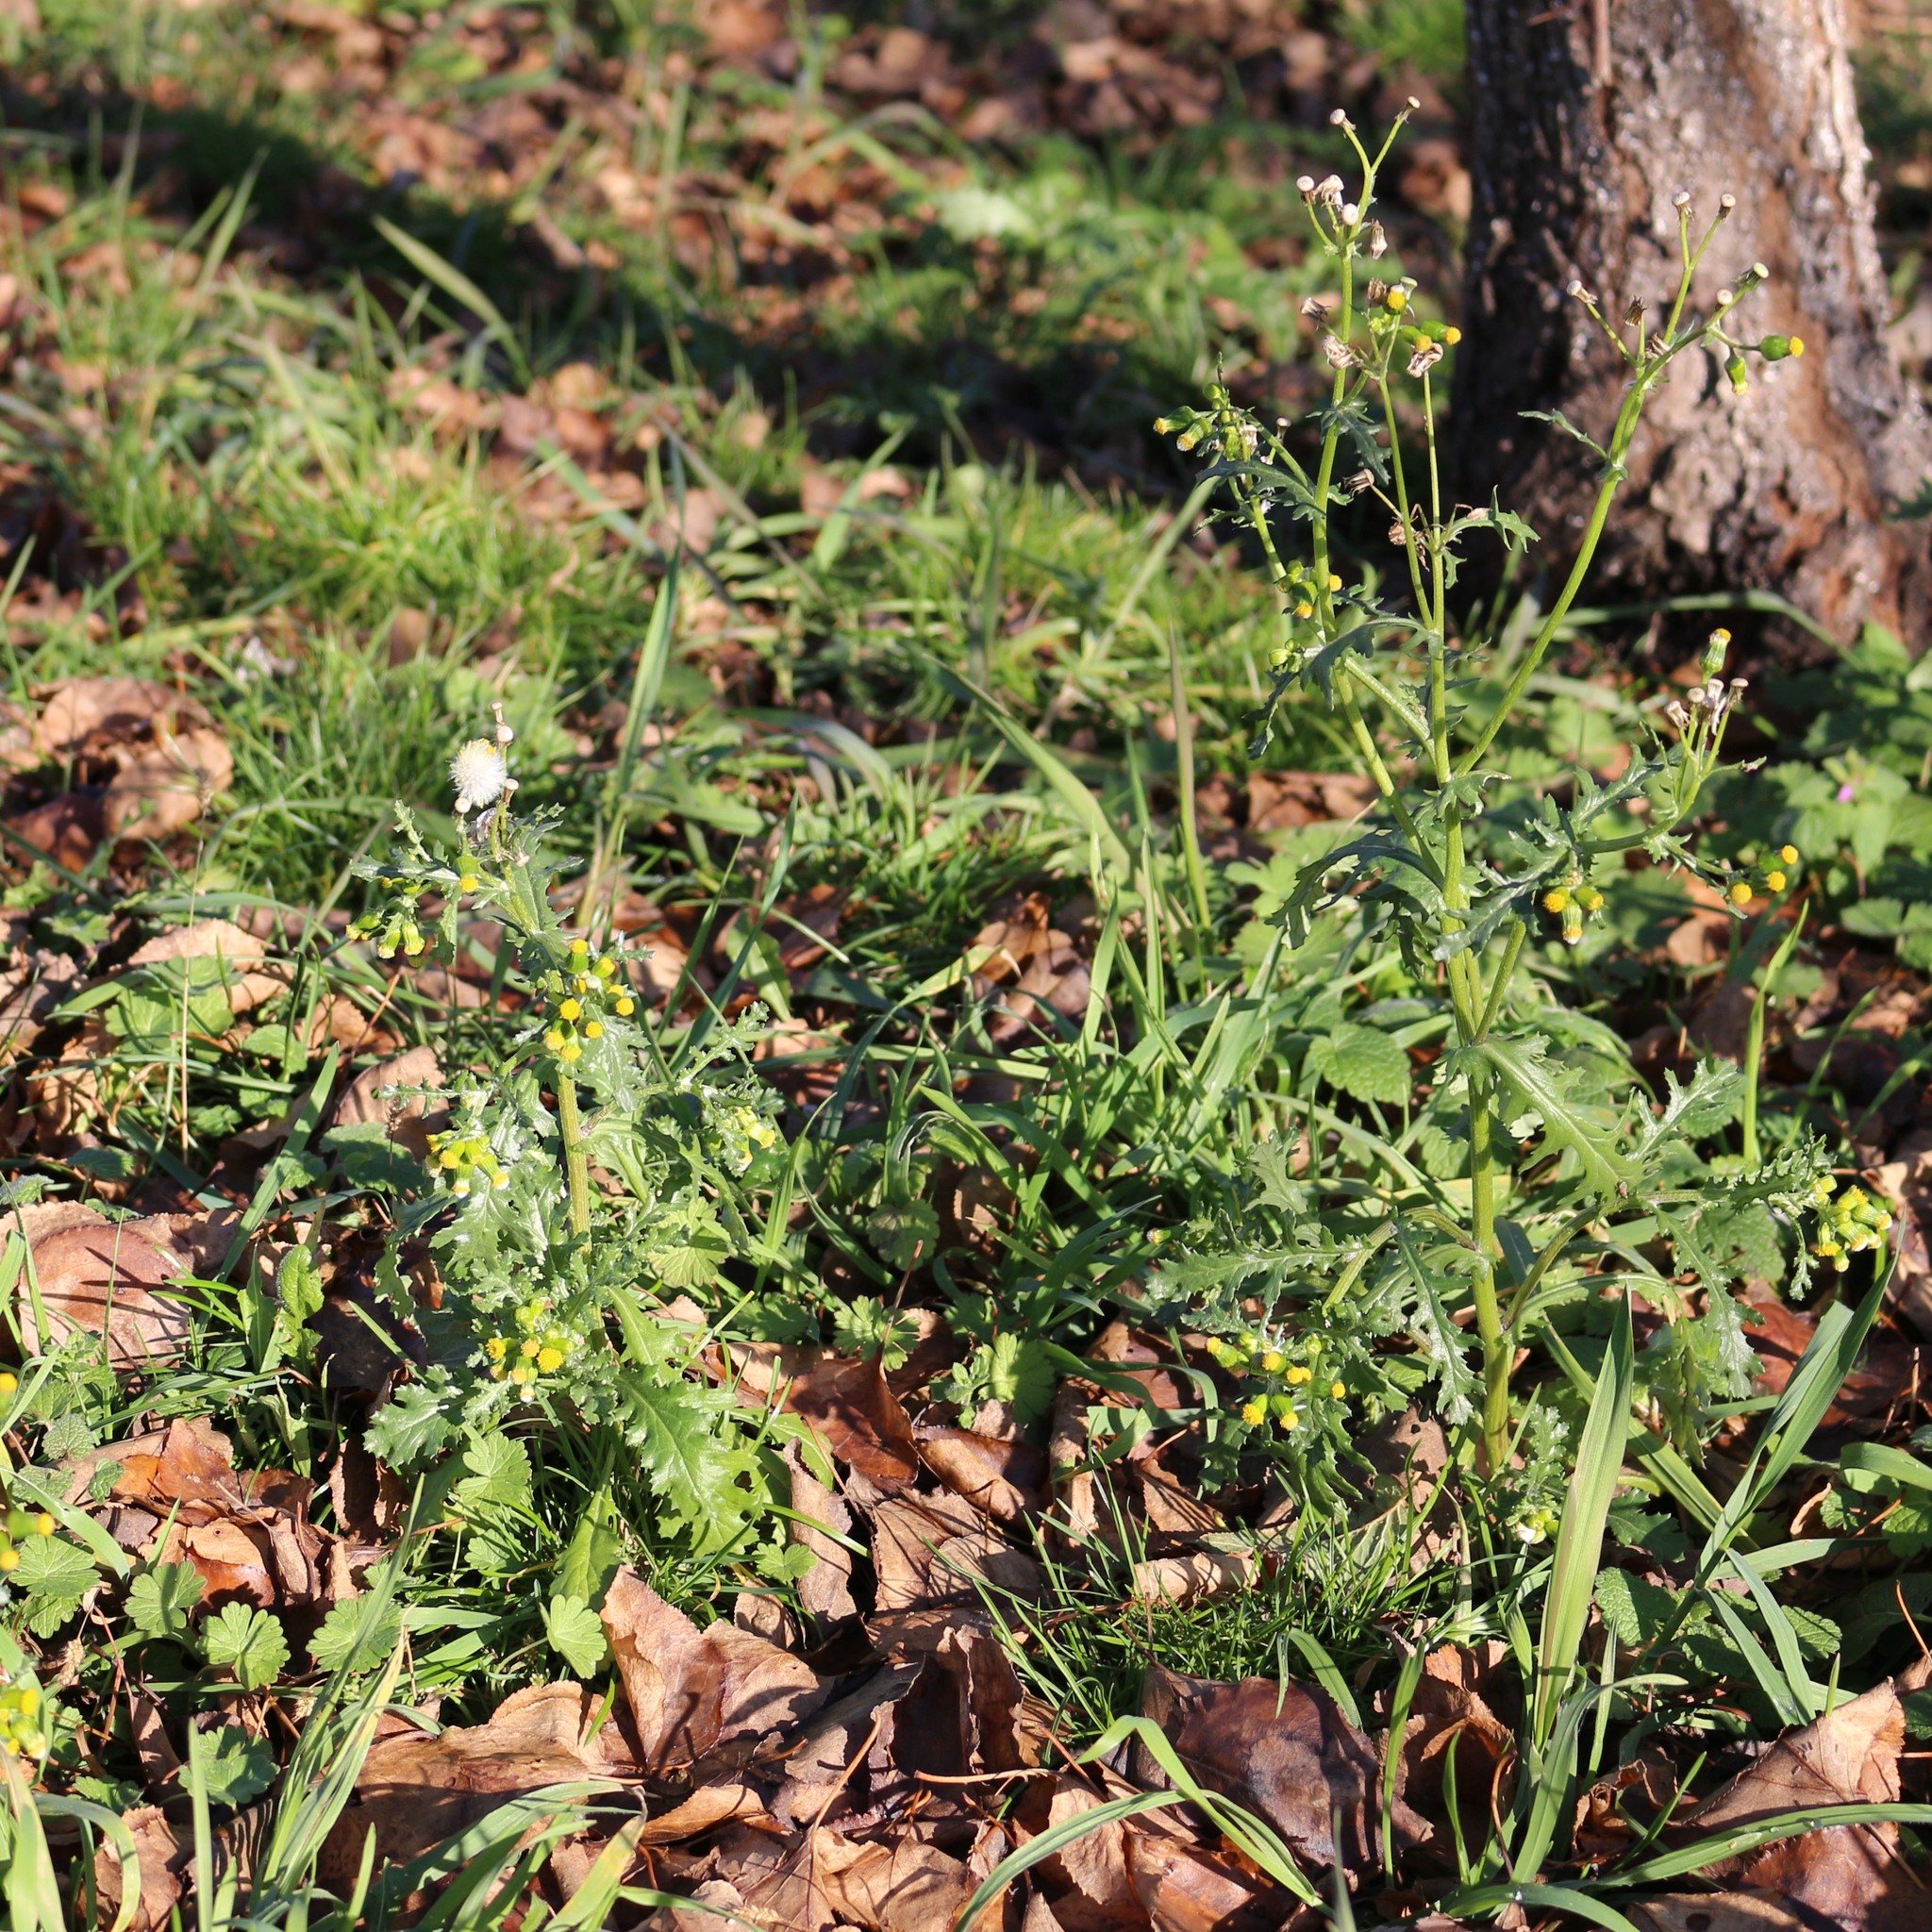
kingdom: Plantae
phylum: Tracheophyta
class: Magnoliopsida
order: Asterales
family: Asteraceae
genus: Senecio
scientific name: Senecio vulgaris
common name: Old-man-in-the-spring
